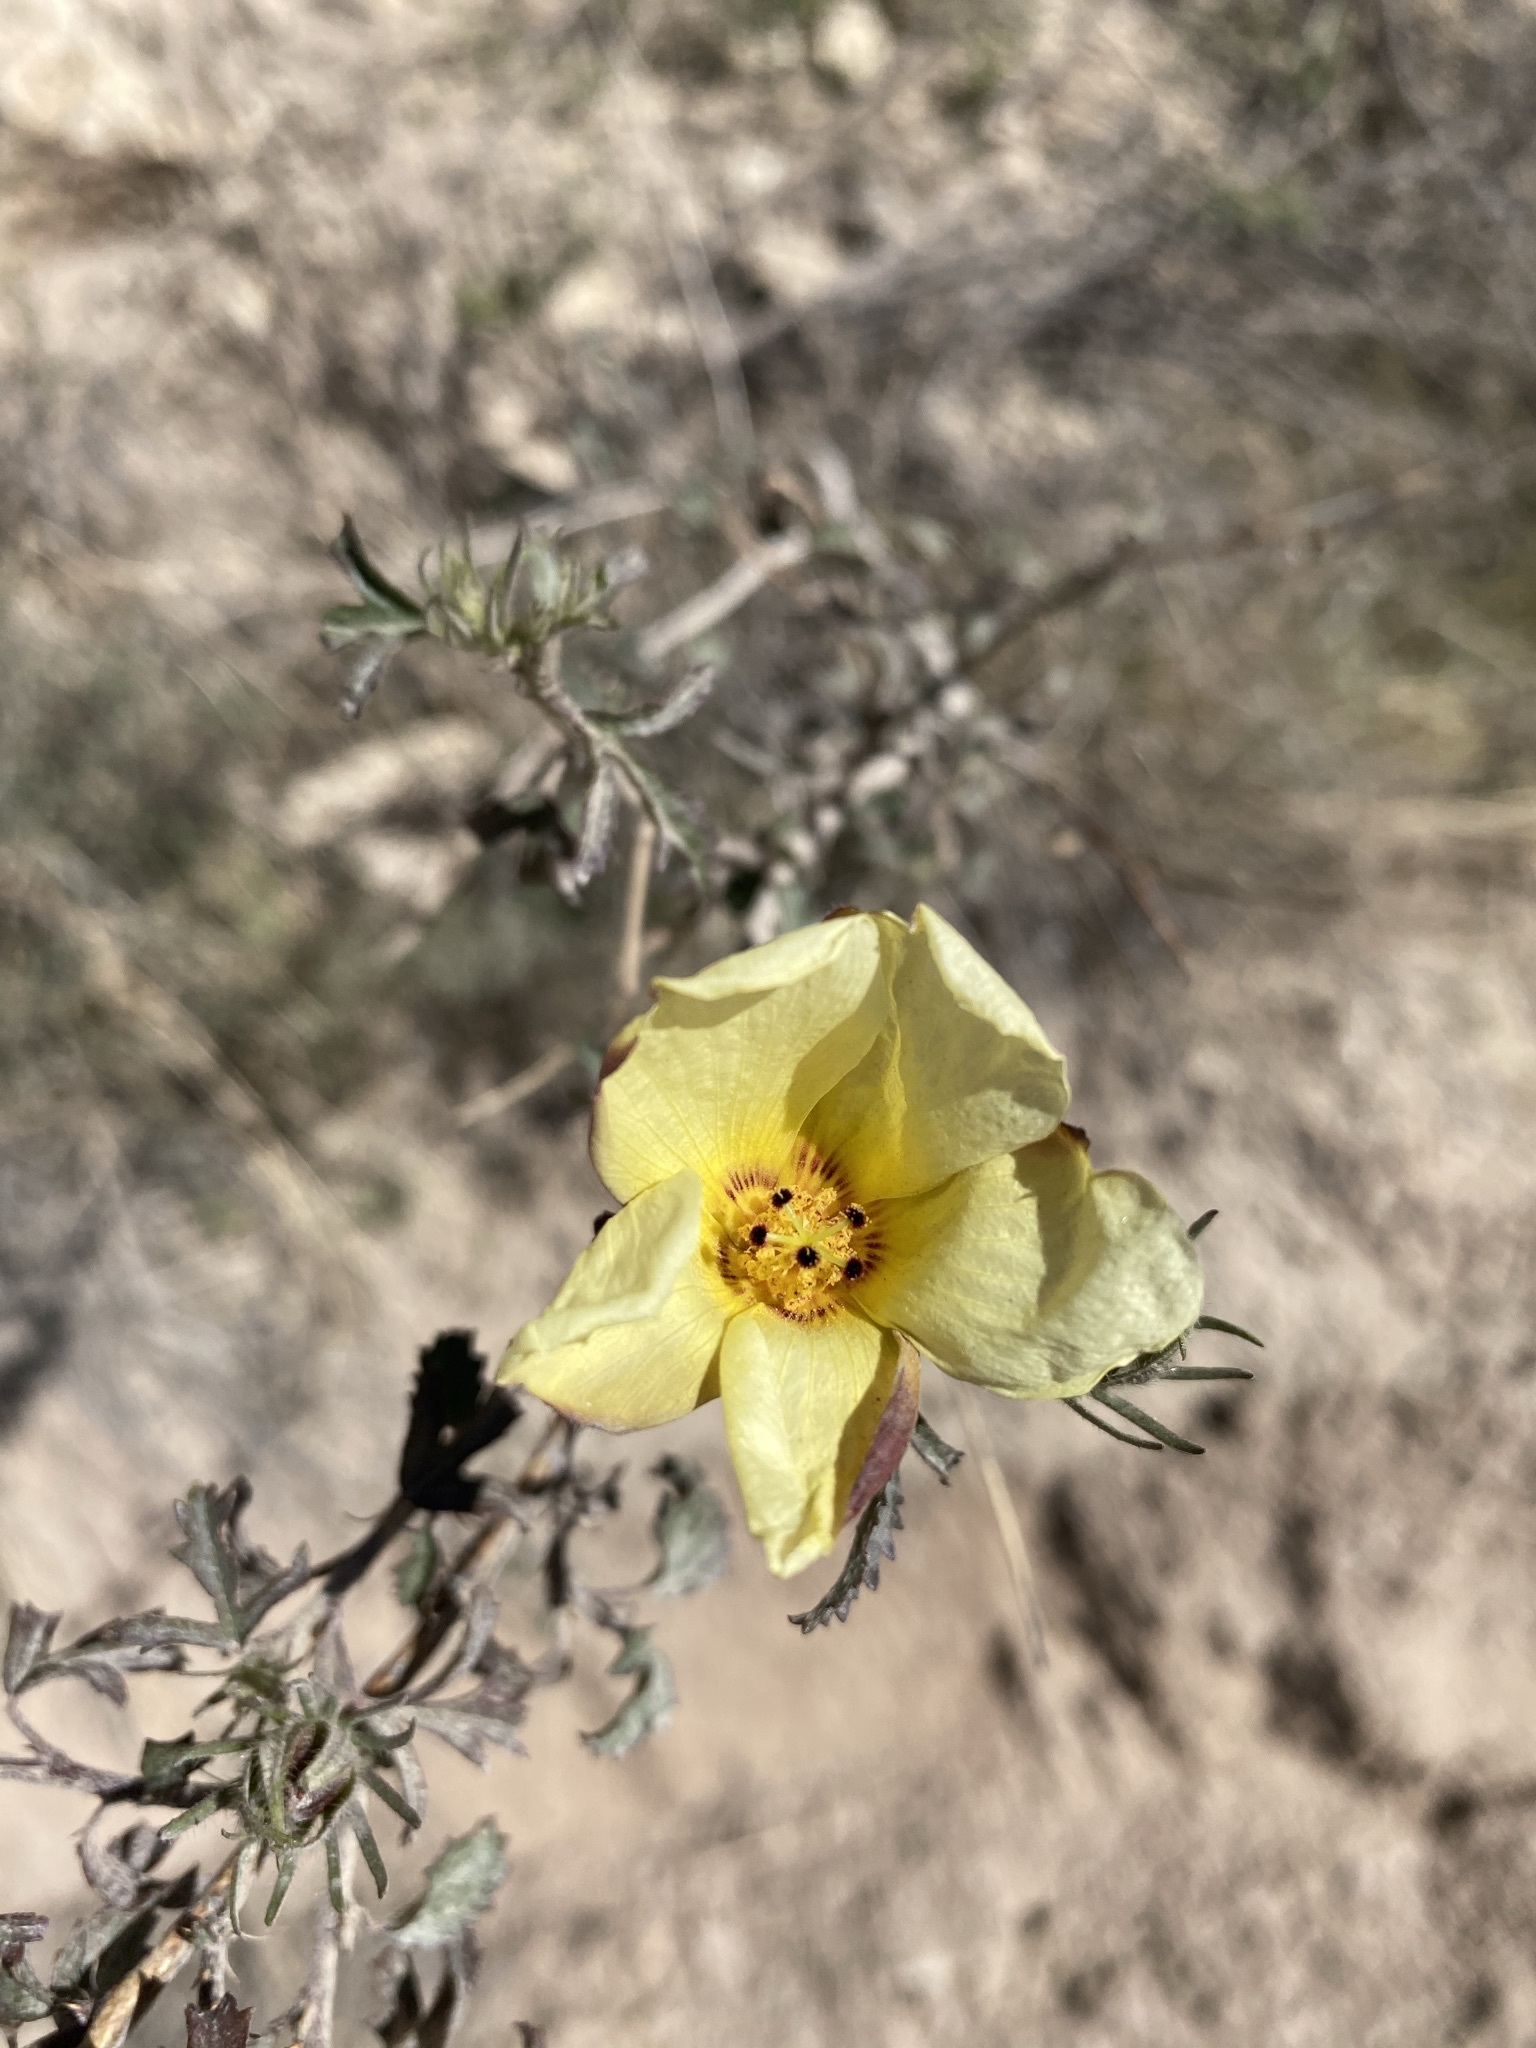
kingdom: Plantae
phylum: Tracheophyta
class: Magnoliopsida
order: Malvales
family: Malvaceae
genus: Hibiscus
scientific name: Hibiscus coulteri
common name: Desert rose-mallow
